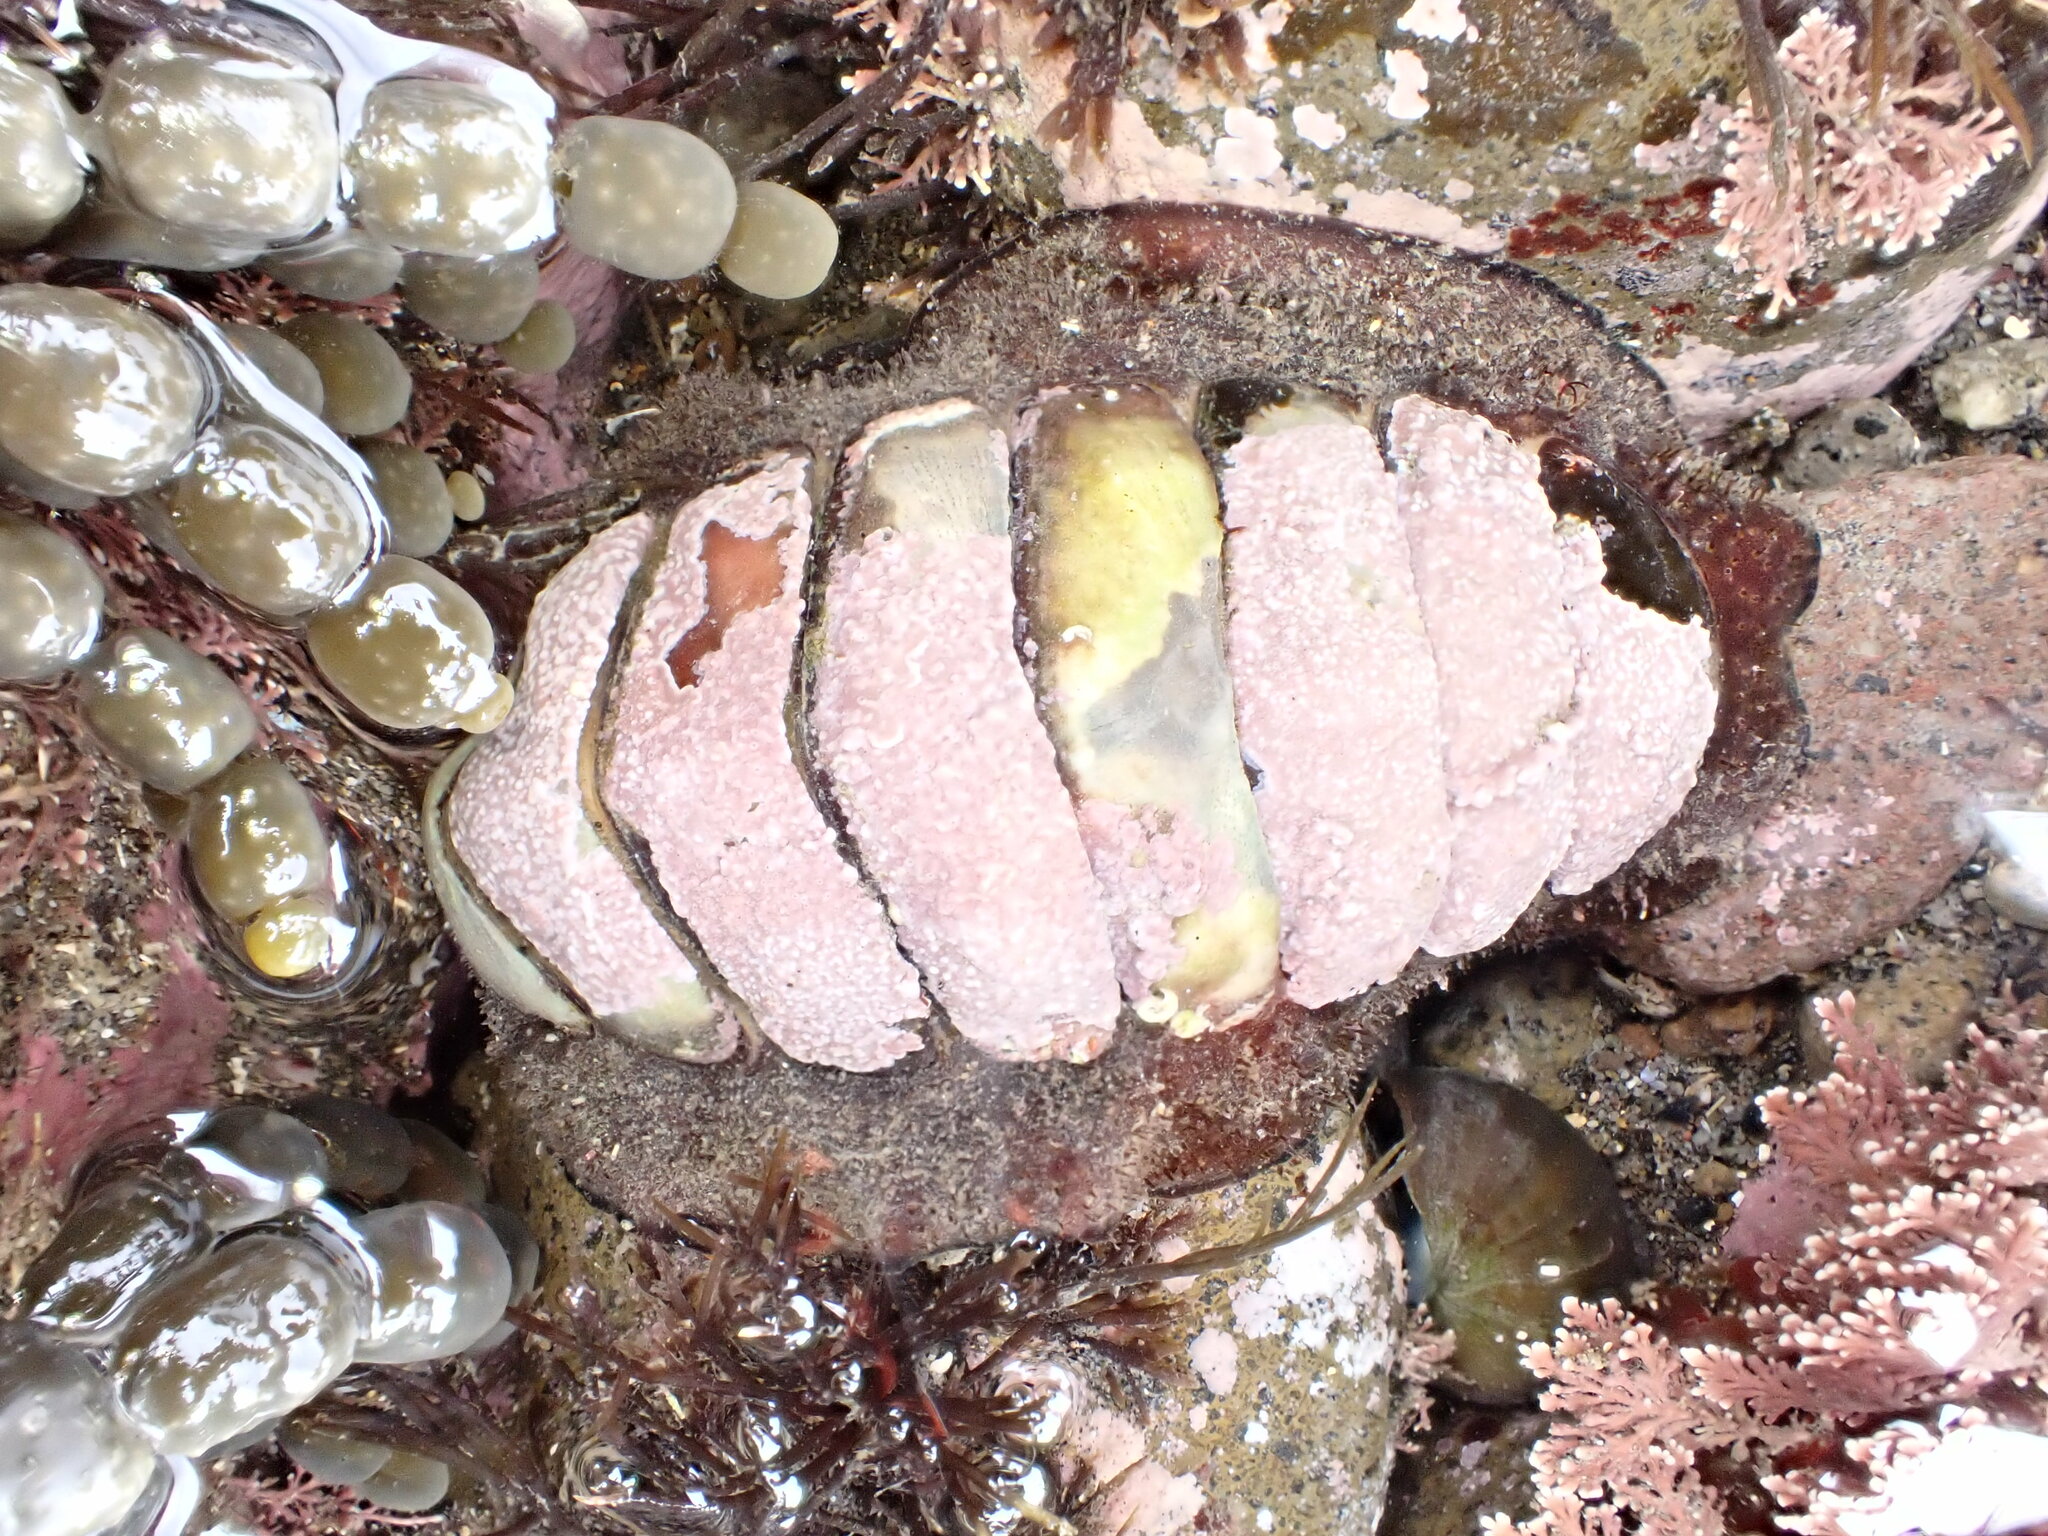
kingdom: Animalia
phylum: Mollusca
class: Polyplacophora
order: Callochitonida
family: Callochitonidae
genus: Eudoxochiton
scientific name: Eudoxochiton nobilis
